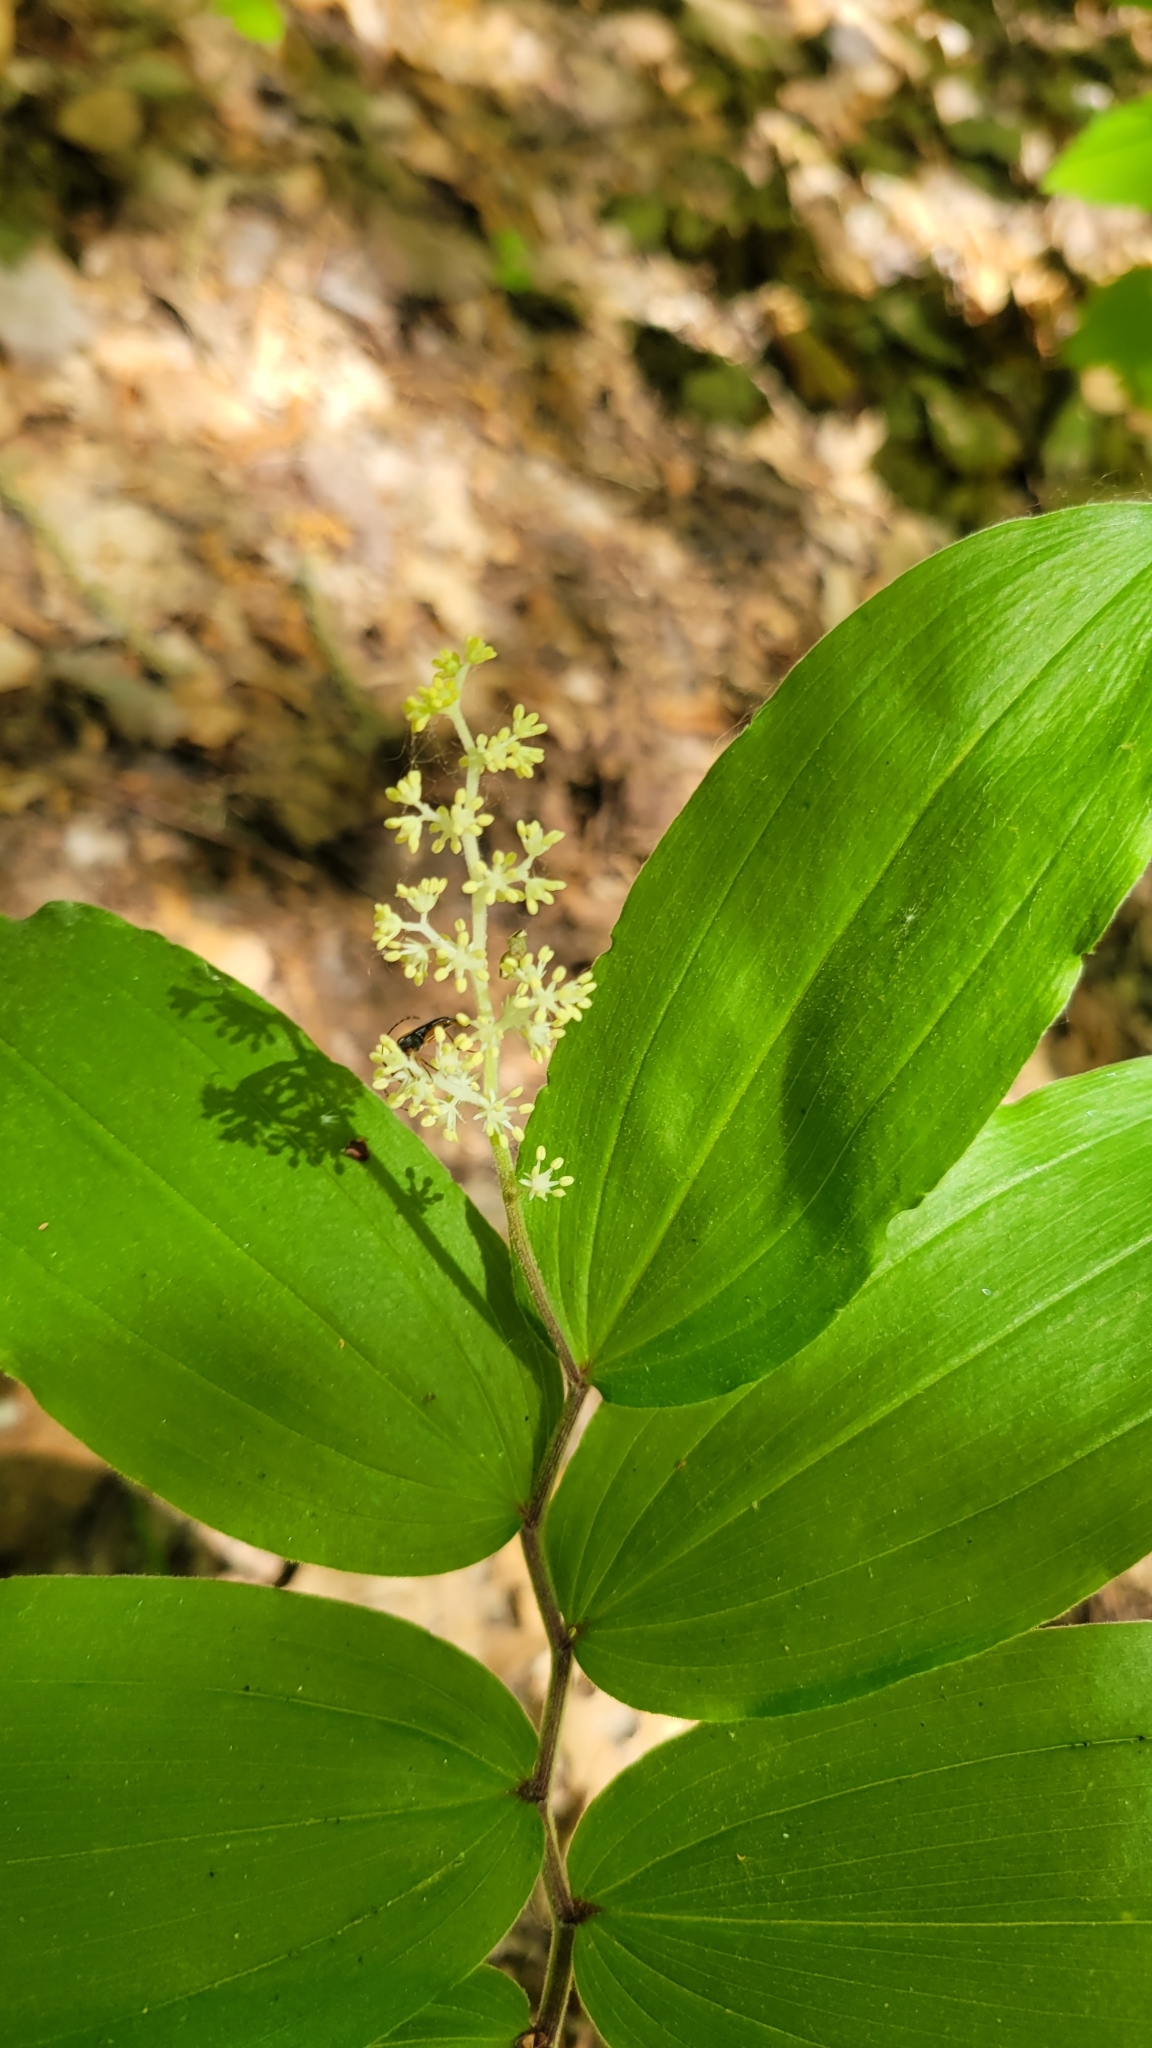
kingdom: Plantae
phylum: Tracheophyta
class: Liliopsida
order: Asparagales
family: Asparagaceae
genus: Maianthemum
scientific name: Maianthemum racemosum
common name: False spikenard
